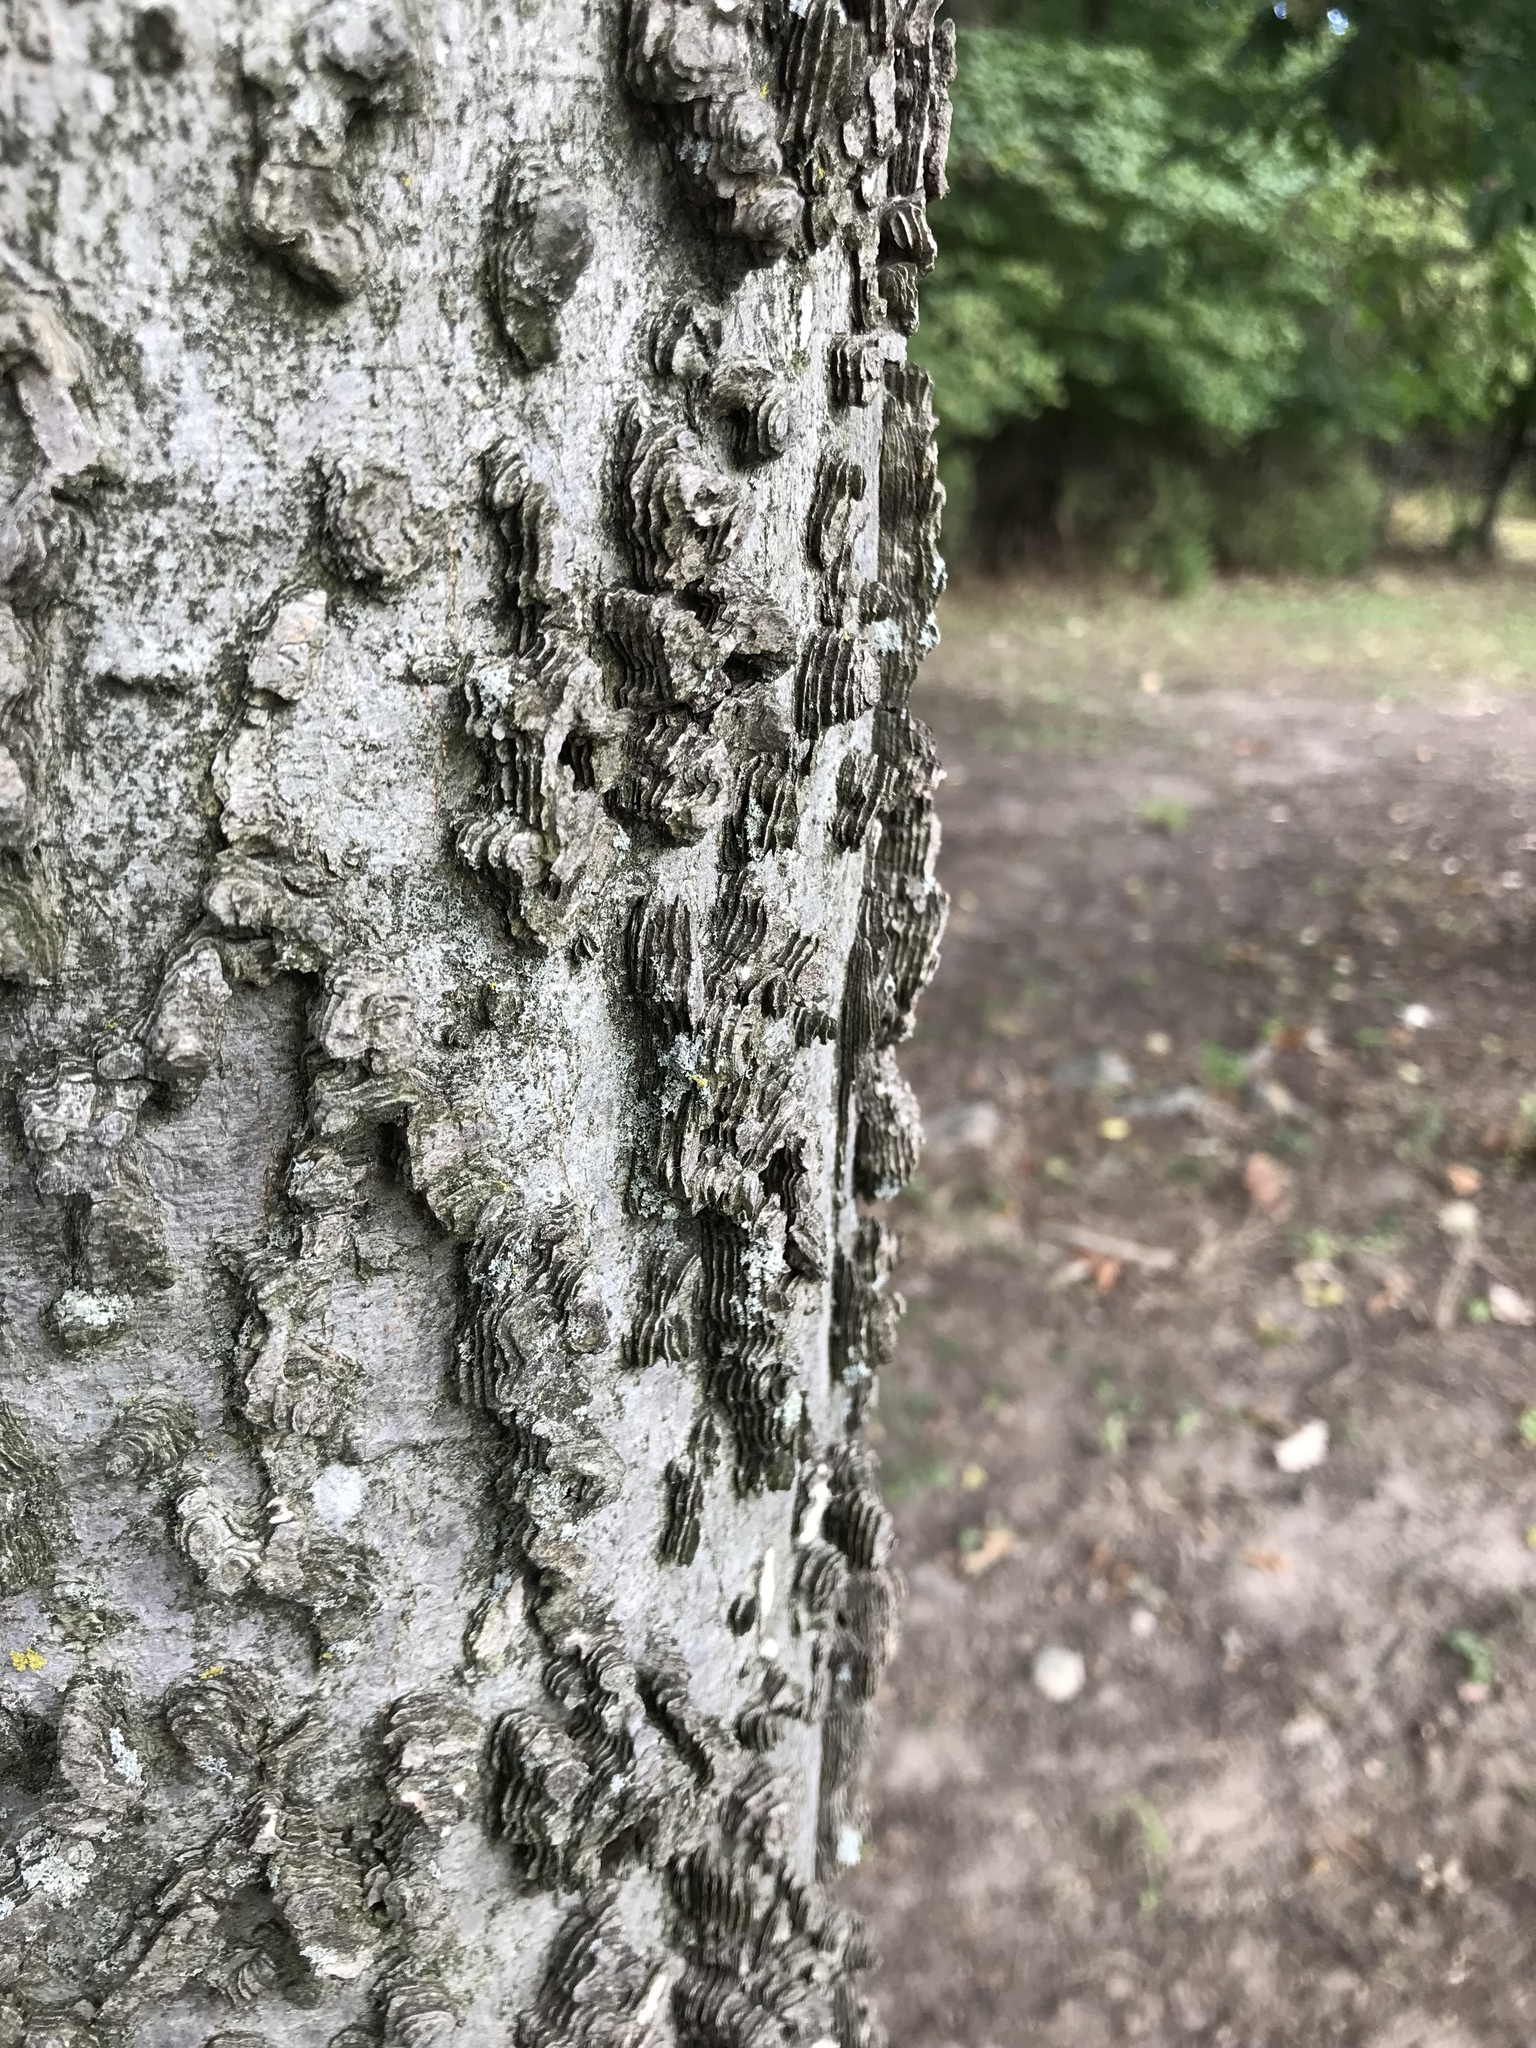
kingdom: Plantae
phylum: Tracheophyta
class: Magnoliopsida
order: Rosales
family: Cannabaceae
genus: Celtis
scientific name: Celtis occidentalis
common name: Common hackberry
